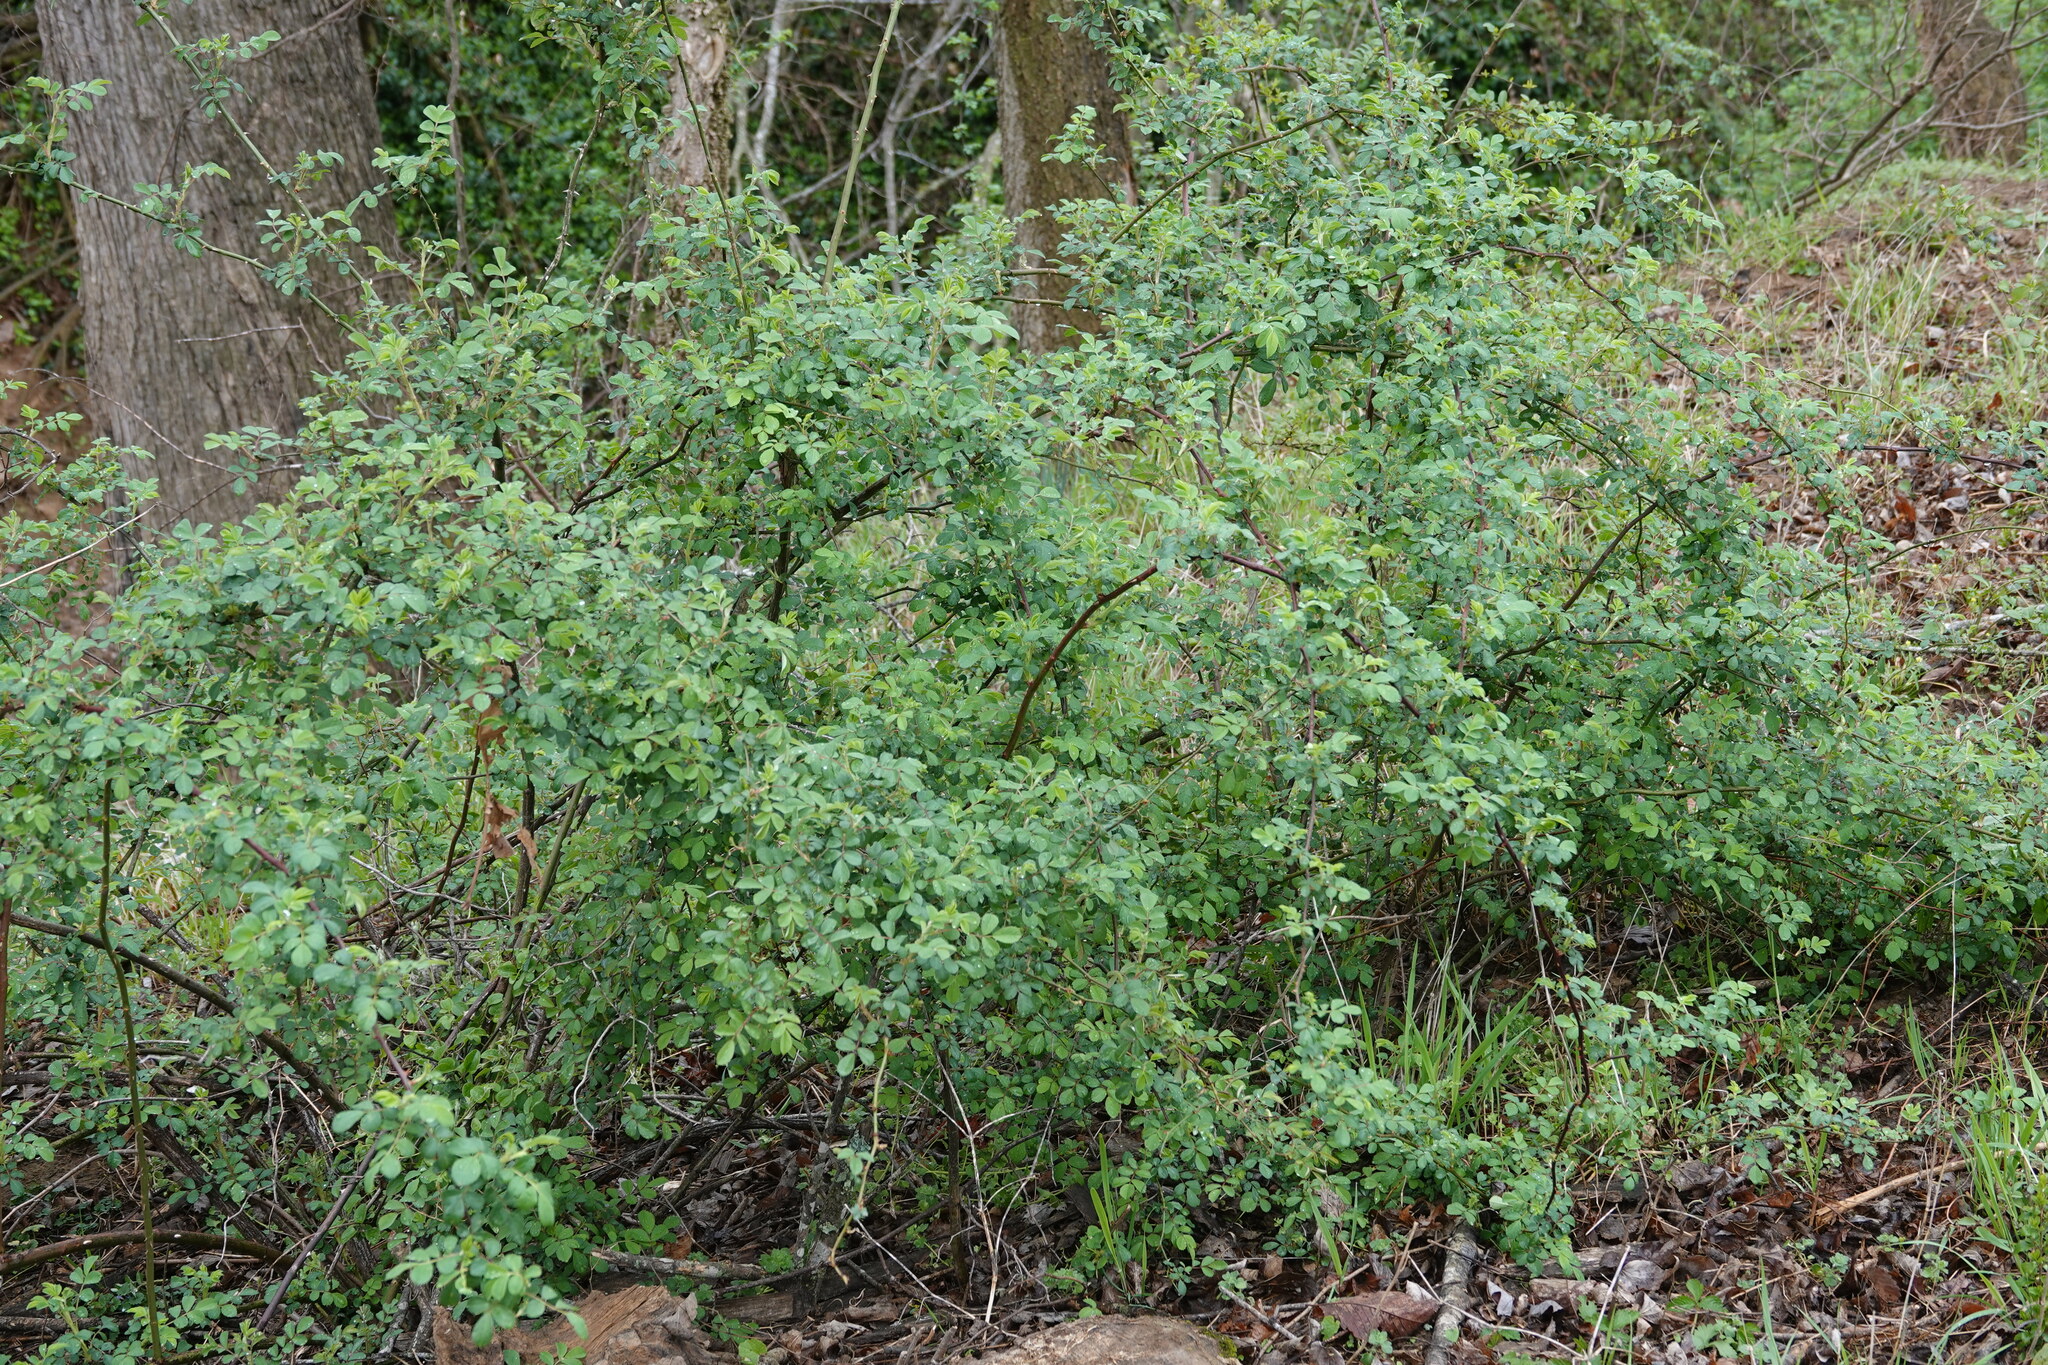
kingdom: Plantae
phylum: Tracheophyta
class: Magnoliopsida
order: Rosales
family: Rosaceae
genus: Rosa
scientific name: Rosa multiflora
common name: Multiflora rose
